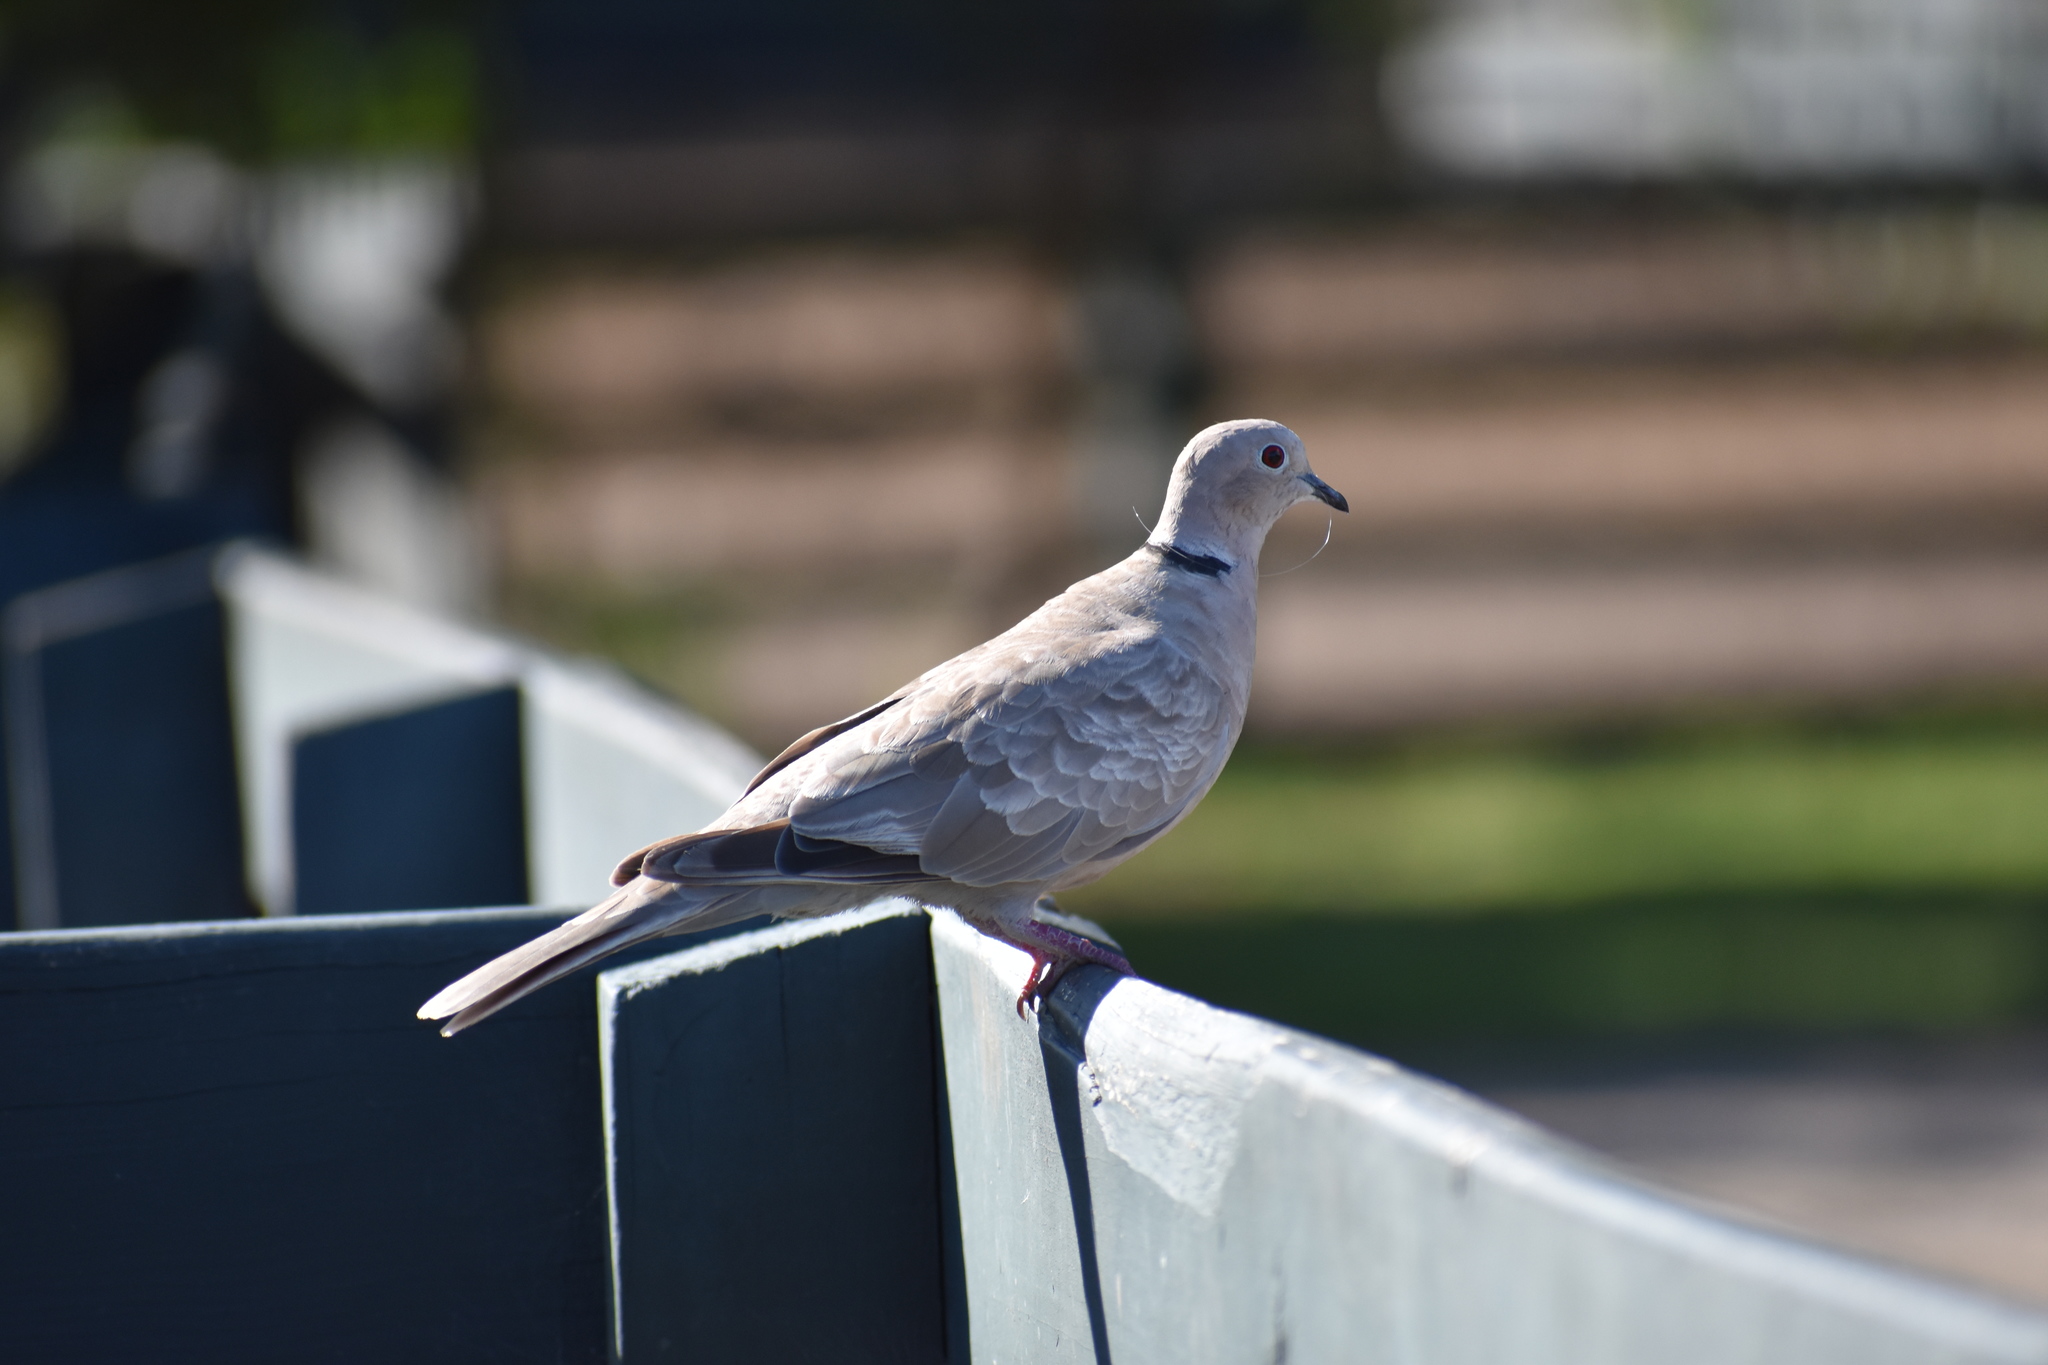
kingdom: Animalia
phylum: Chordata
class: Aves
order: Columbiformes
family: Columbidae
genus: Streptopelia
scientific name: Streptopelia decaocto
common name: Eurasian collared dove
